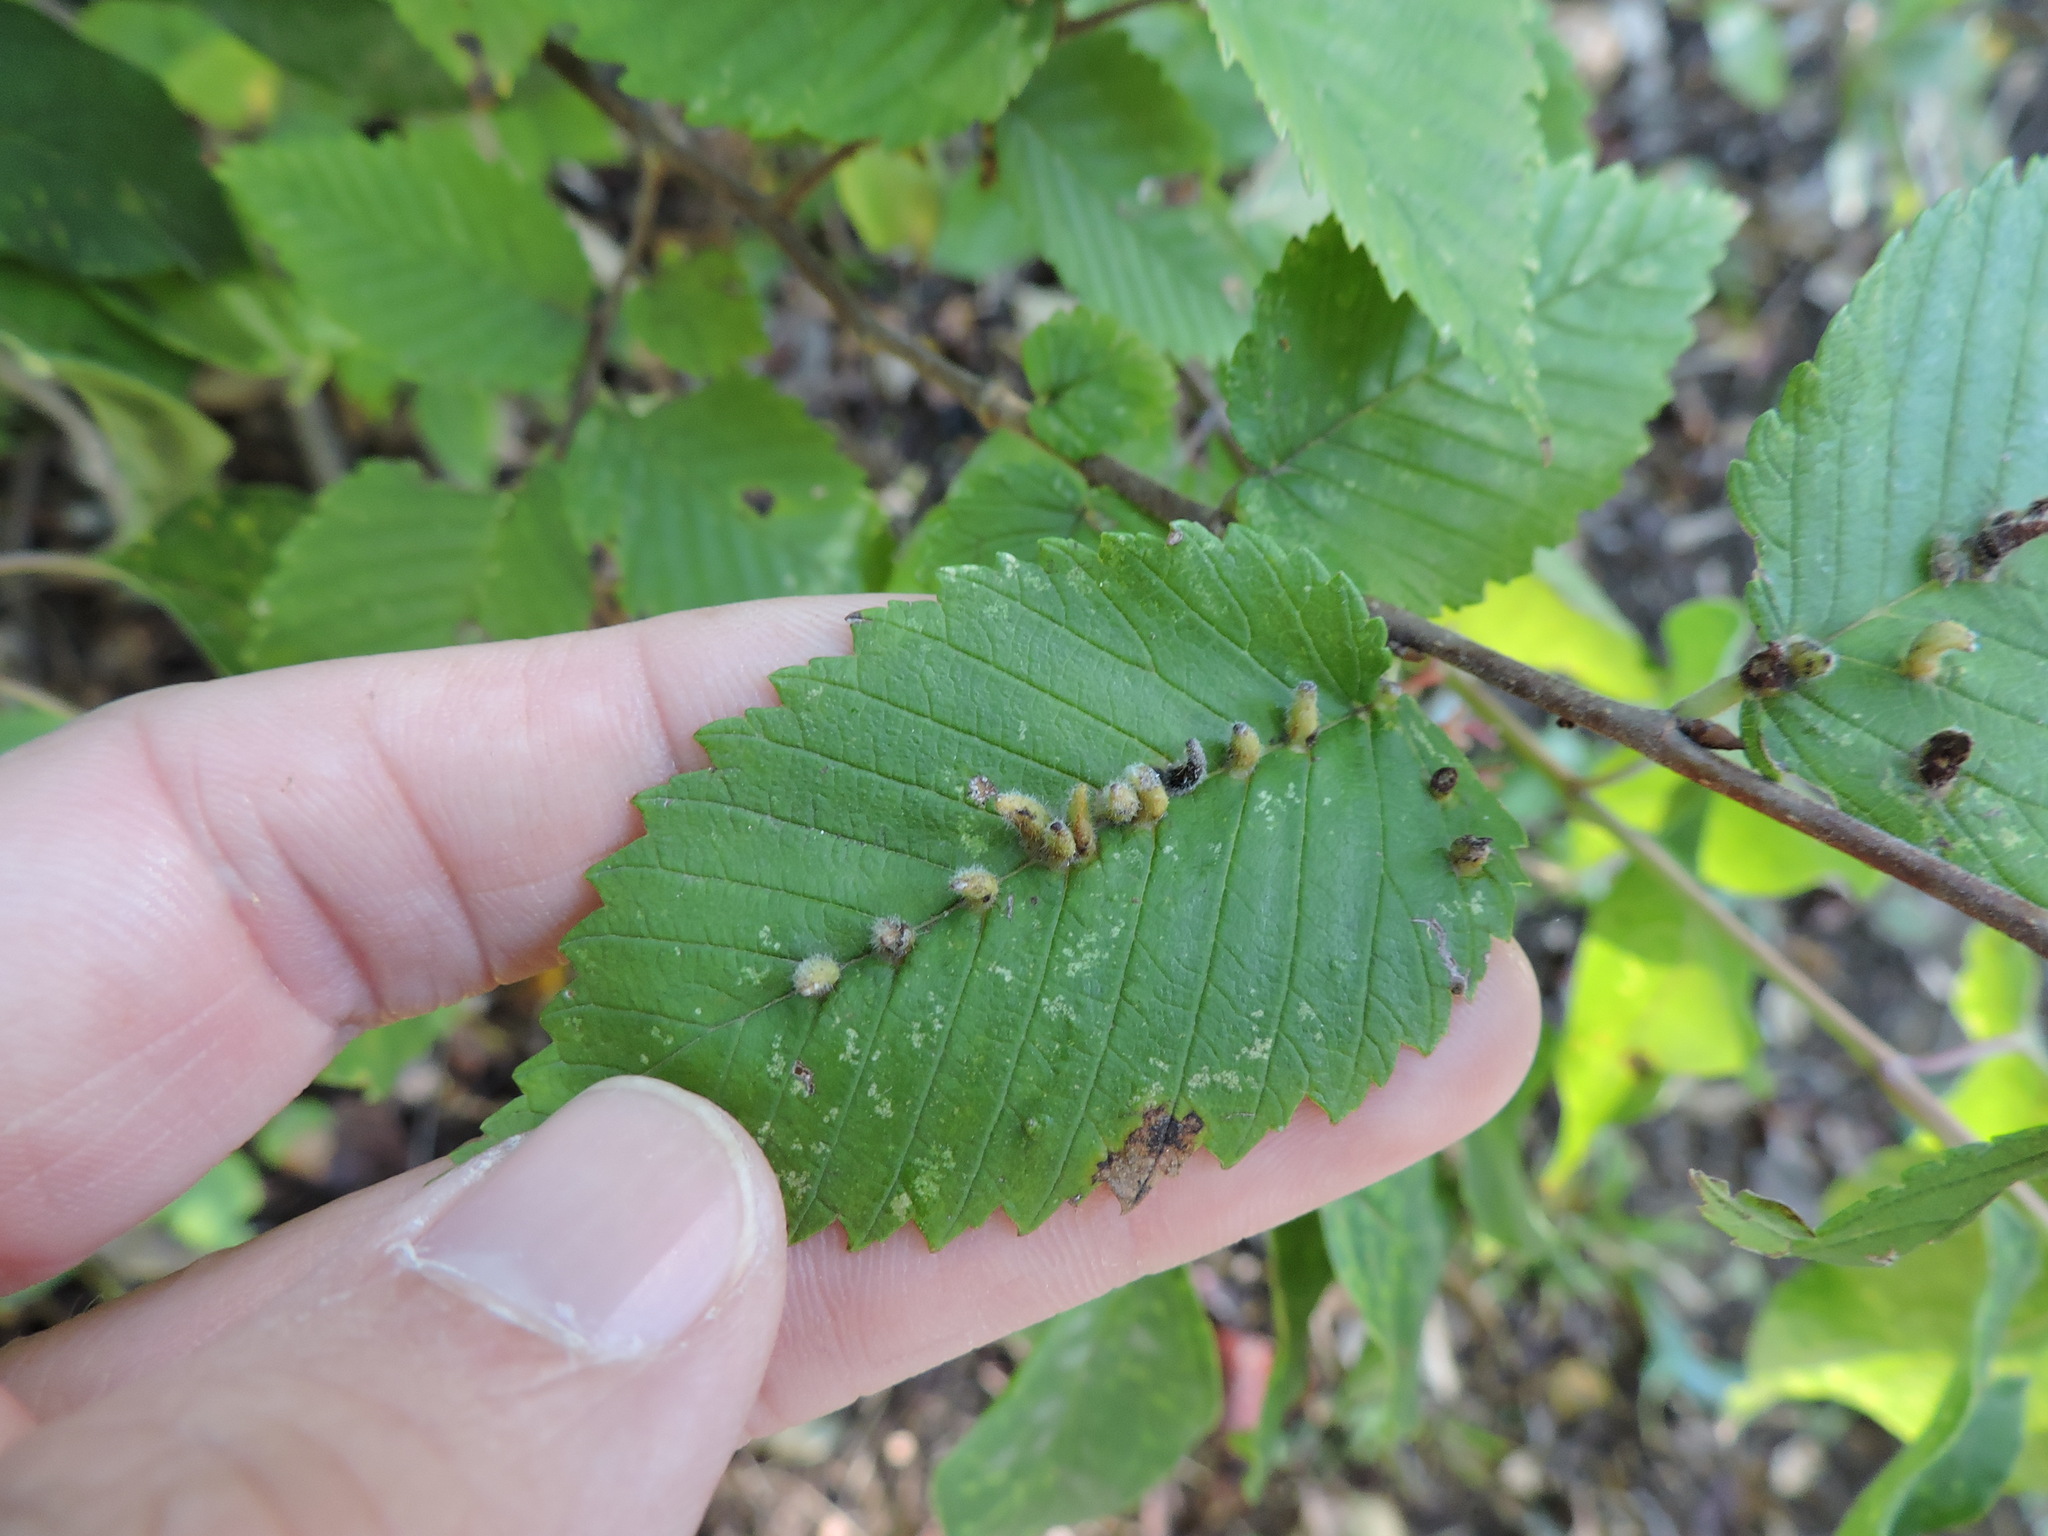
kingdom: Animalia
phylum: Arthropoda
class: Arachnida
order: Trombidiformes
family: Eriophyidae
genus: Aceria
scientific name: Aceria
